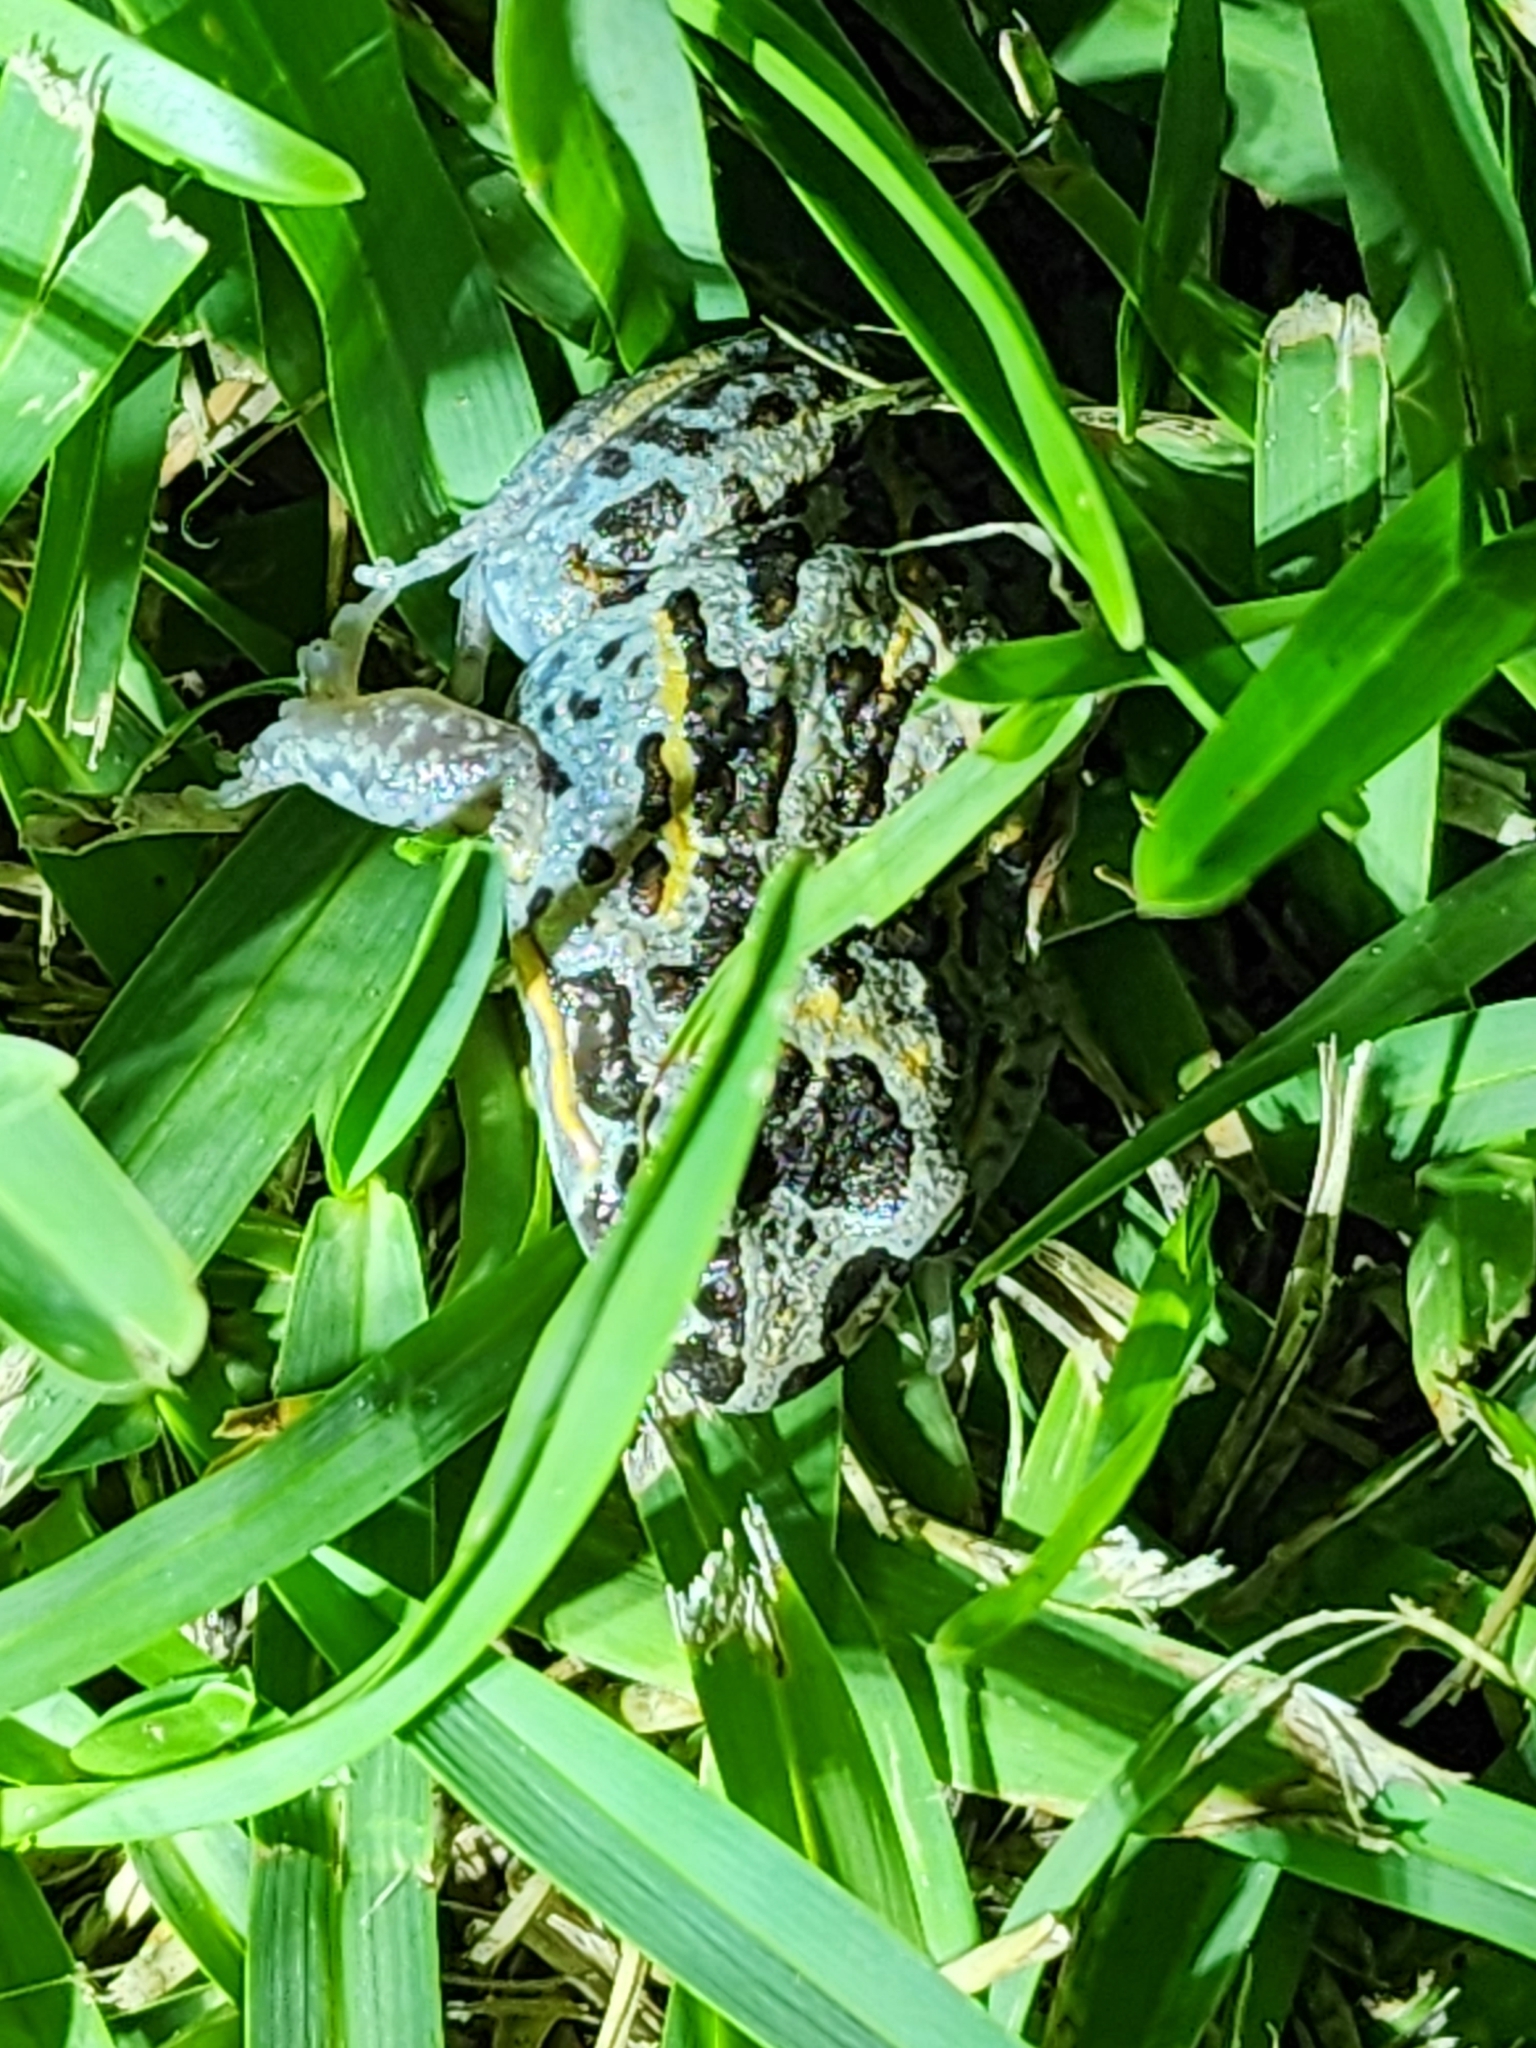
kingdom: Animalia
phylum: Chordata
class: Amphibia
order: Anura
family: Limnodynastidae
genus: Limnodynastes
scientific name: Limnodynastes salmini
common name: Salmon-striped frog
